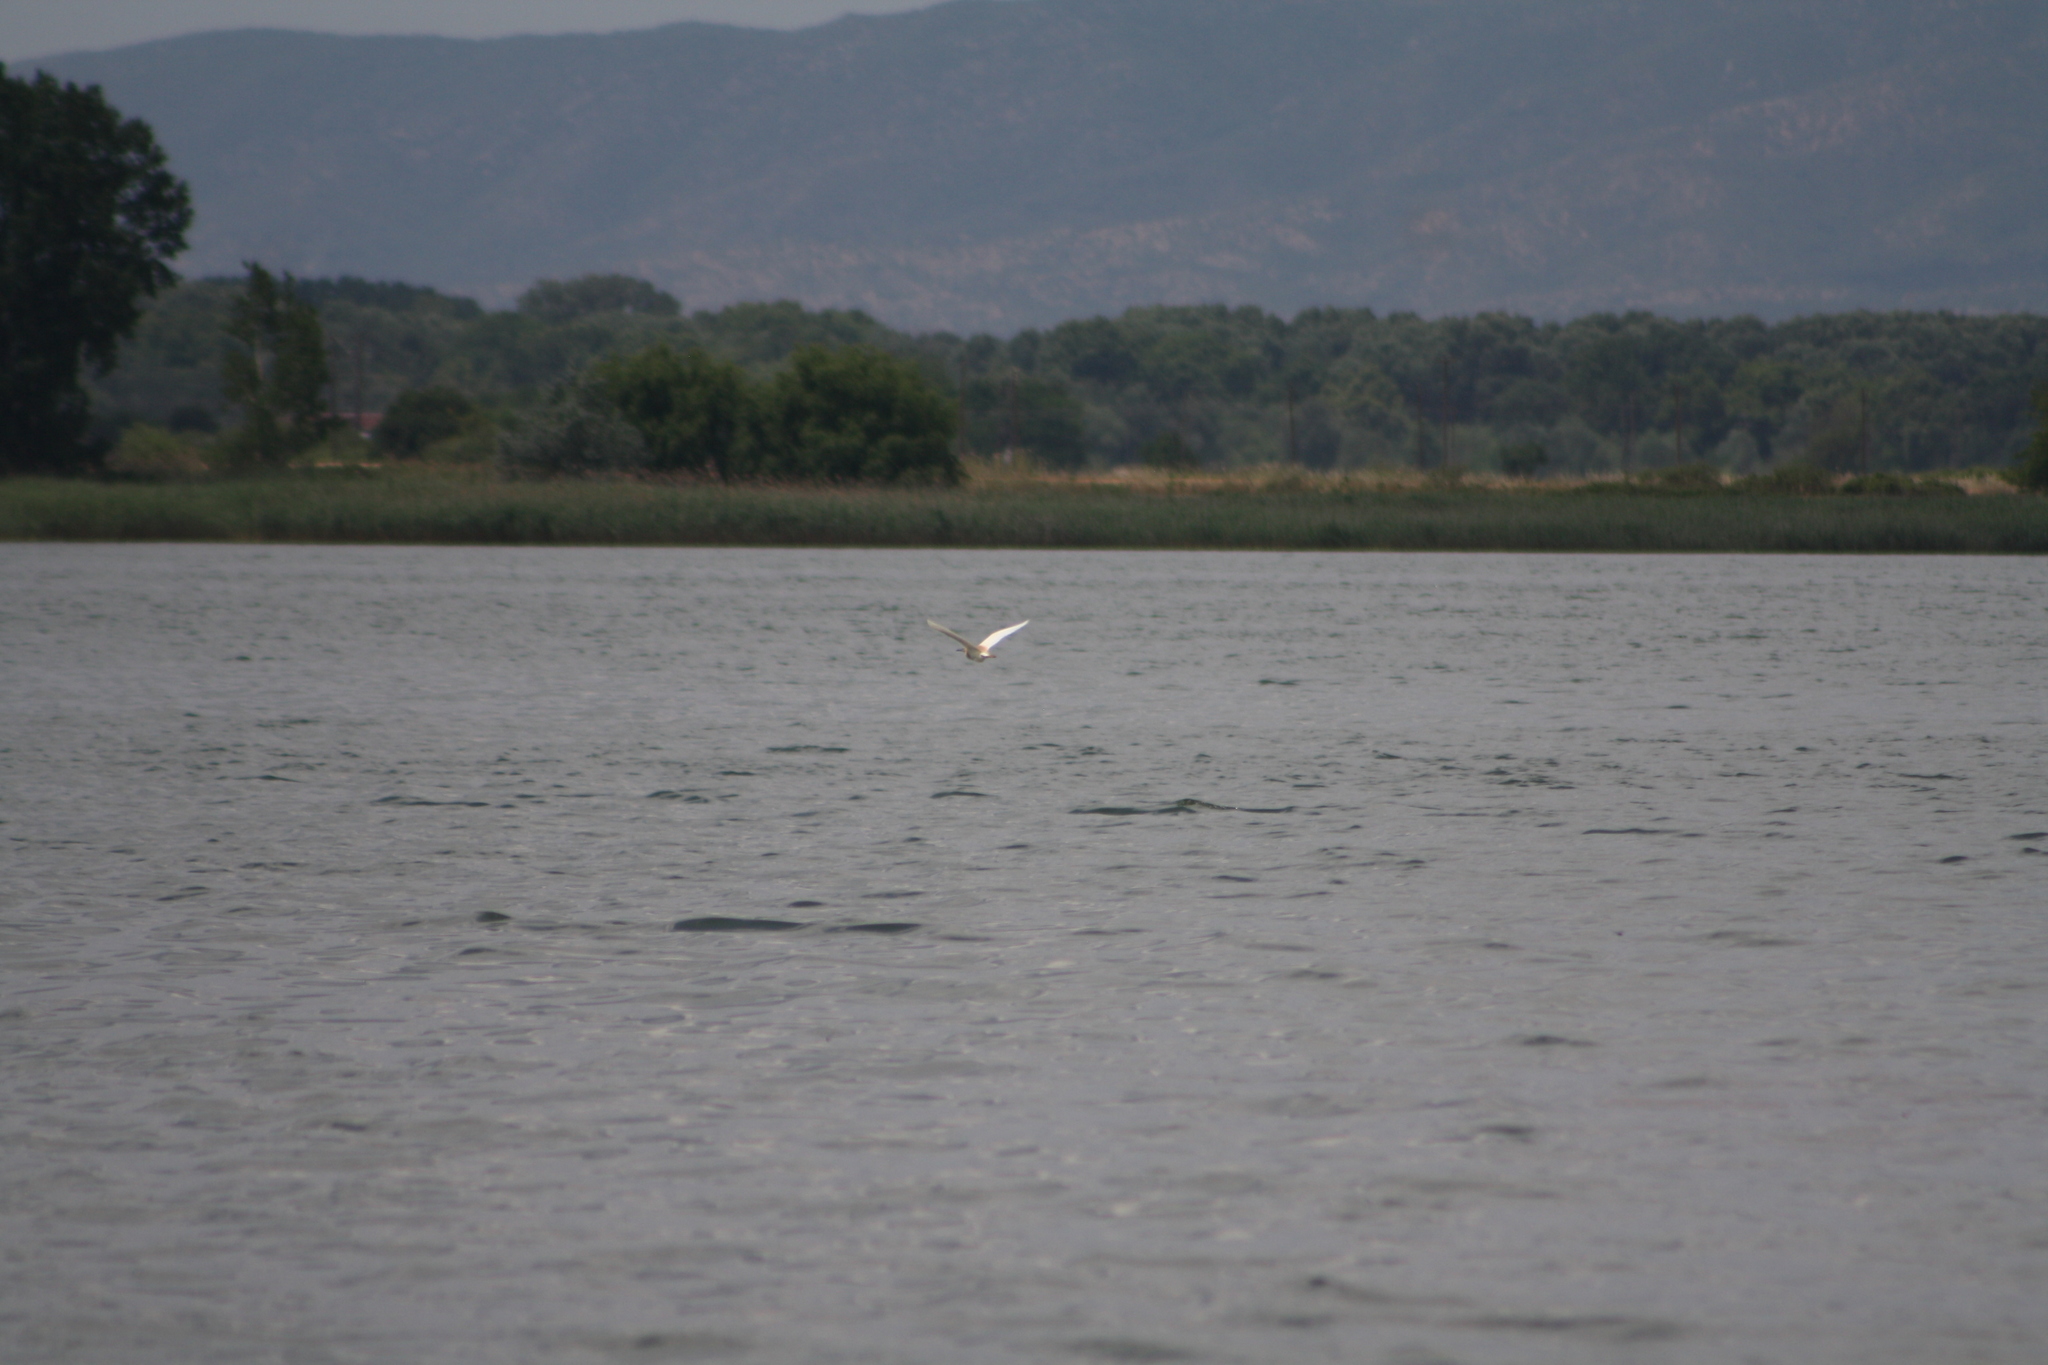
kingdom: Animalia
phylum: Chordata
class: Aves
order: Pelecaniformes
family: Ardeidae
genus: Ardeola
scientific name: Ardeola ralloides
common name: Squacco heron
